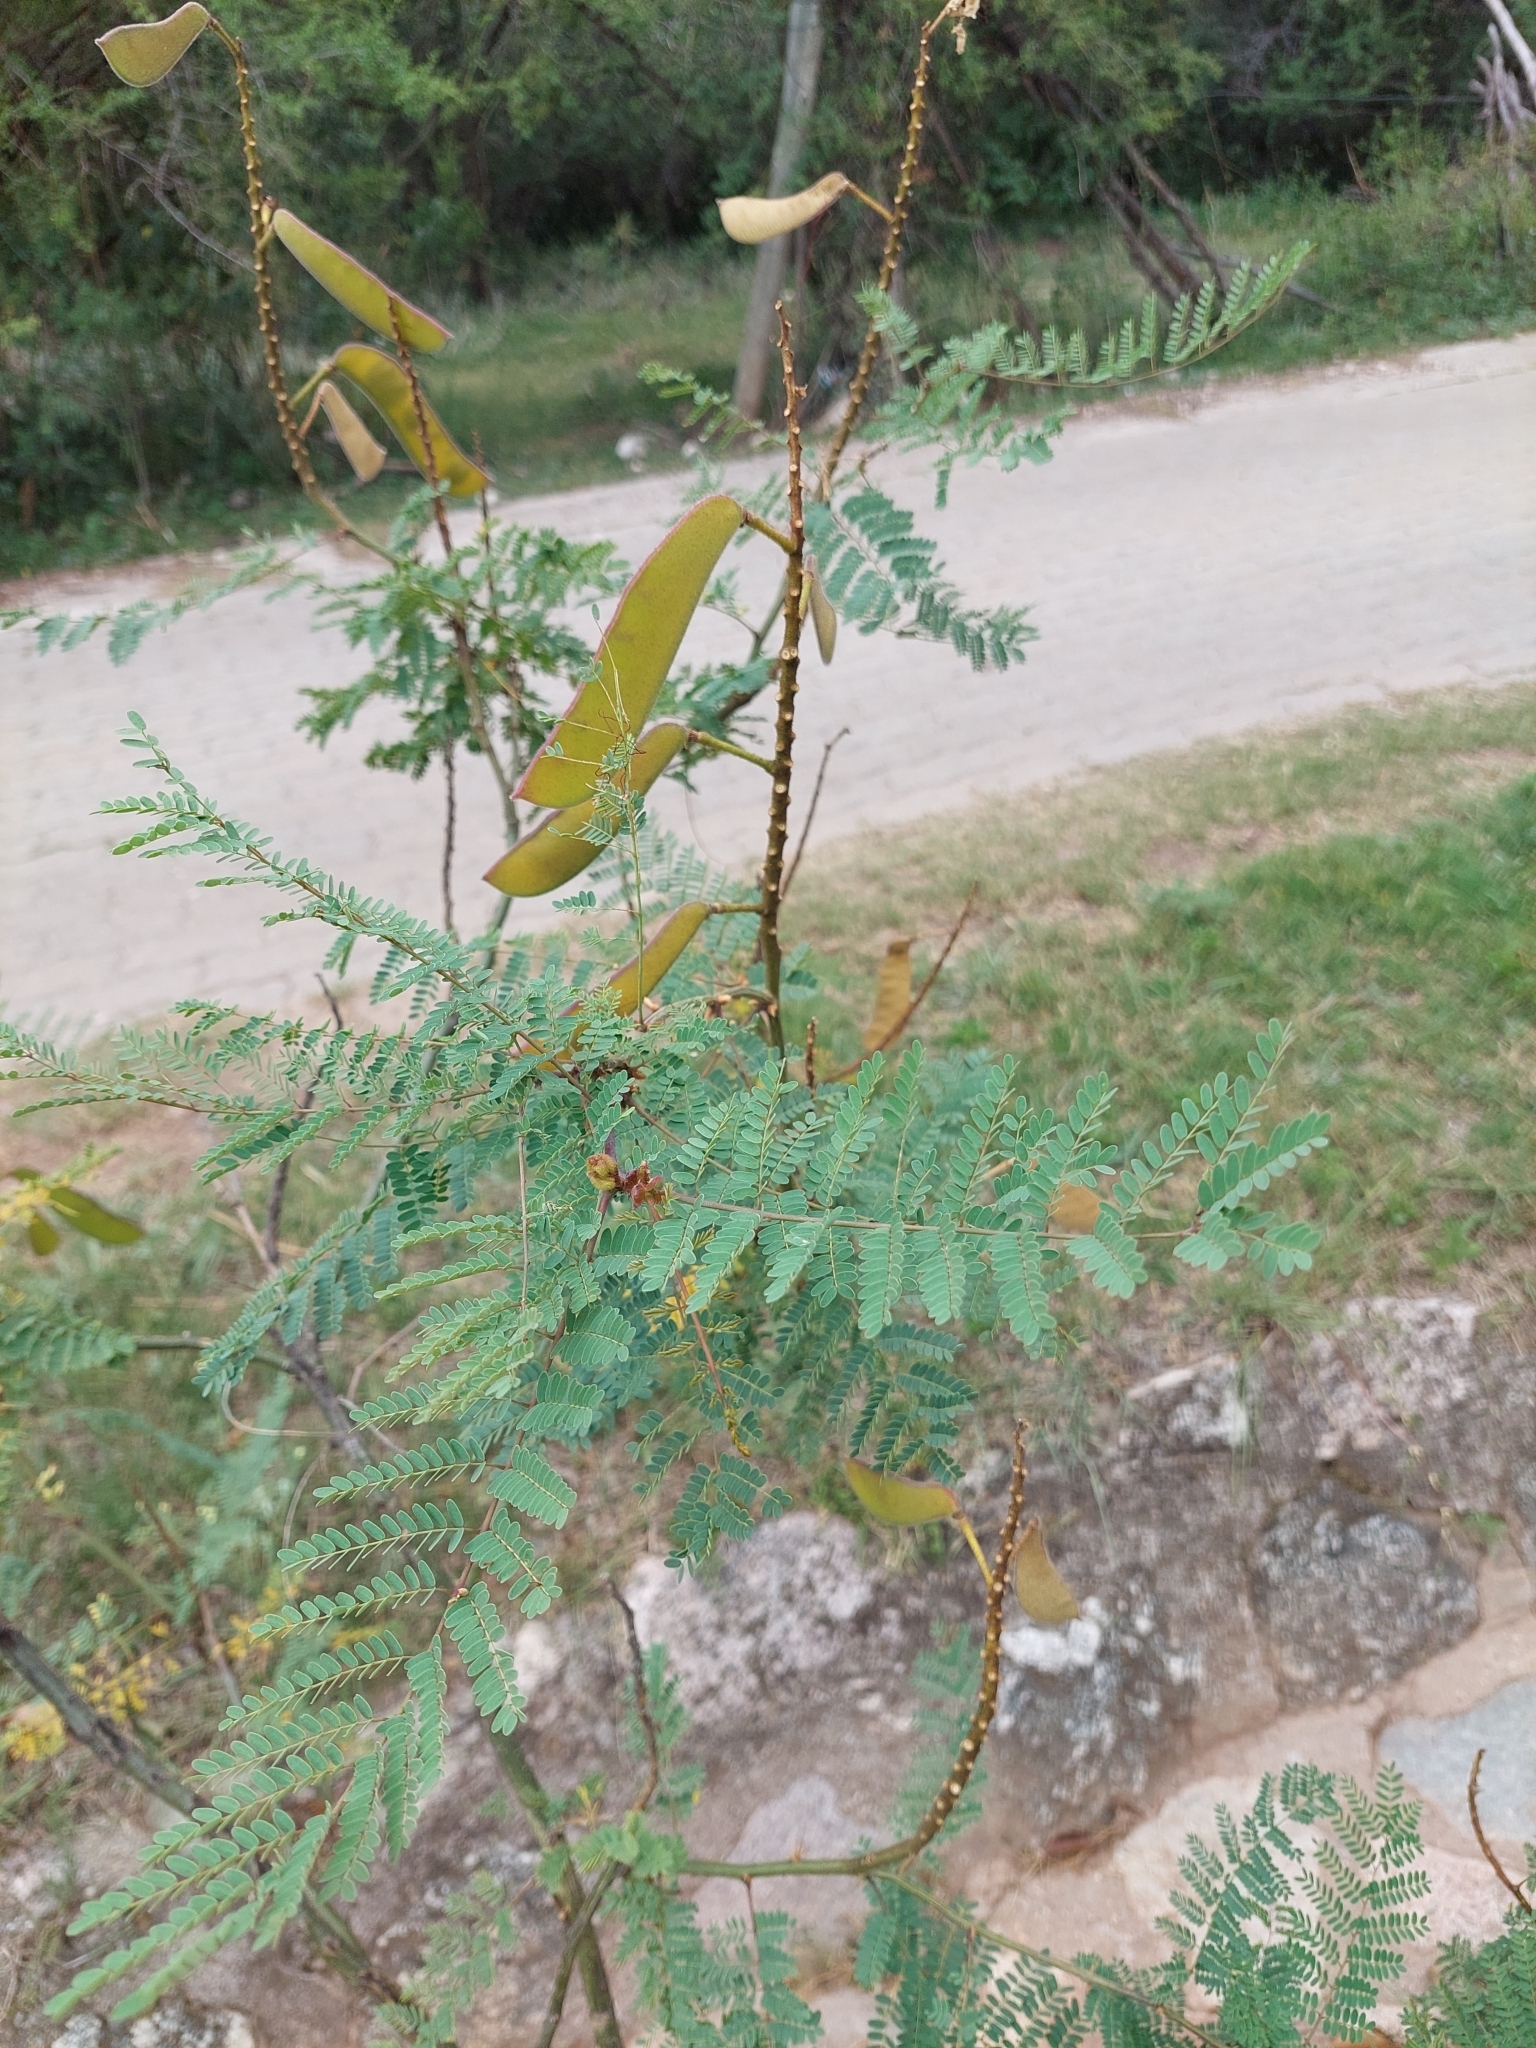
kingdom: Plantae
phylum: Tracheophyta
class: Magnoliopsida
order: Fabales
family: Fabaceae
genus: Erythrostemon
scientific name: Erythrostemon gilliesii
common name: Bird-of-paradise shrub
